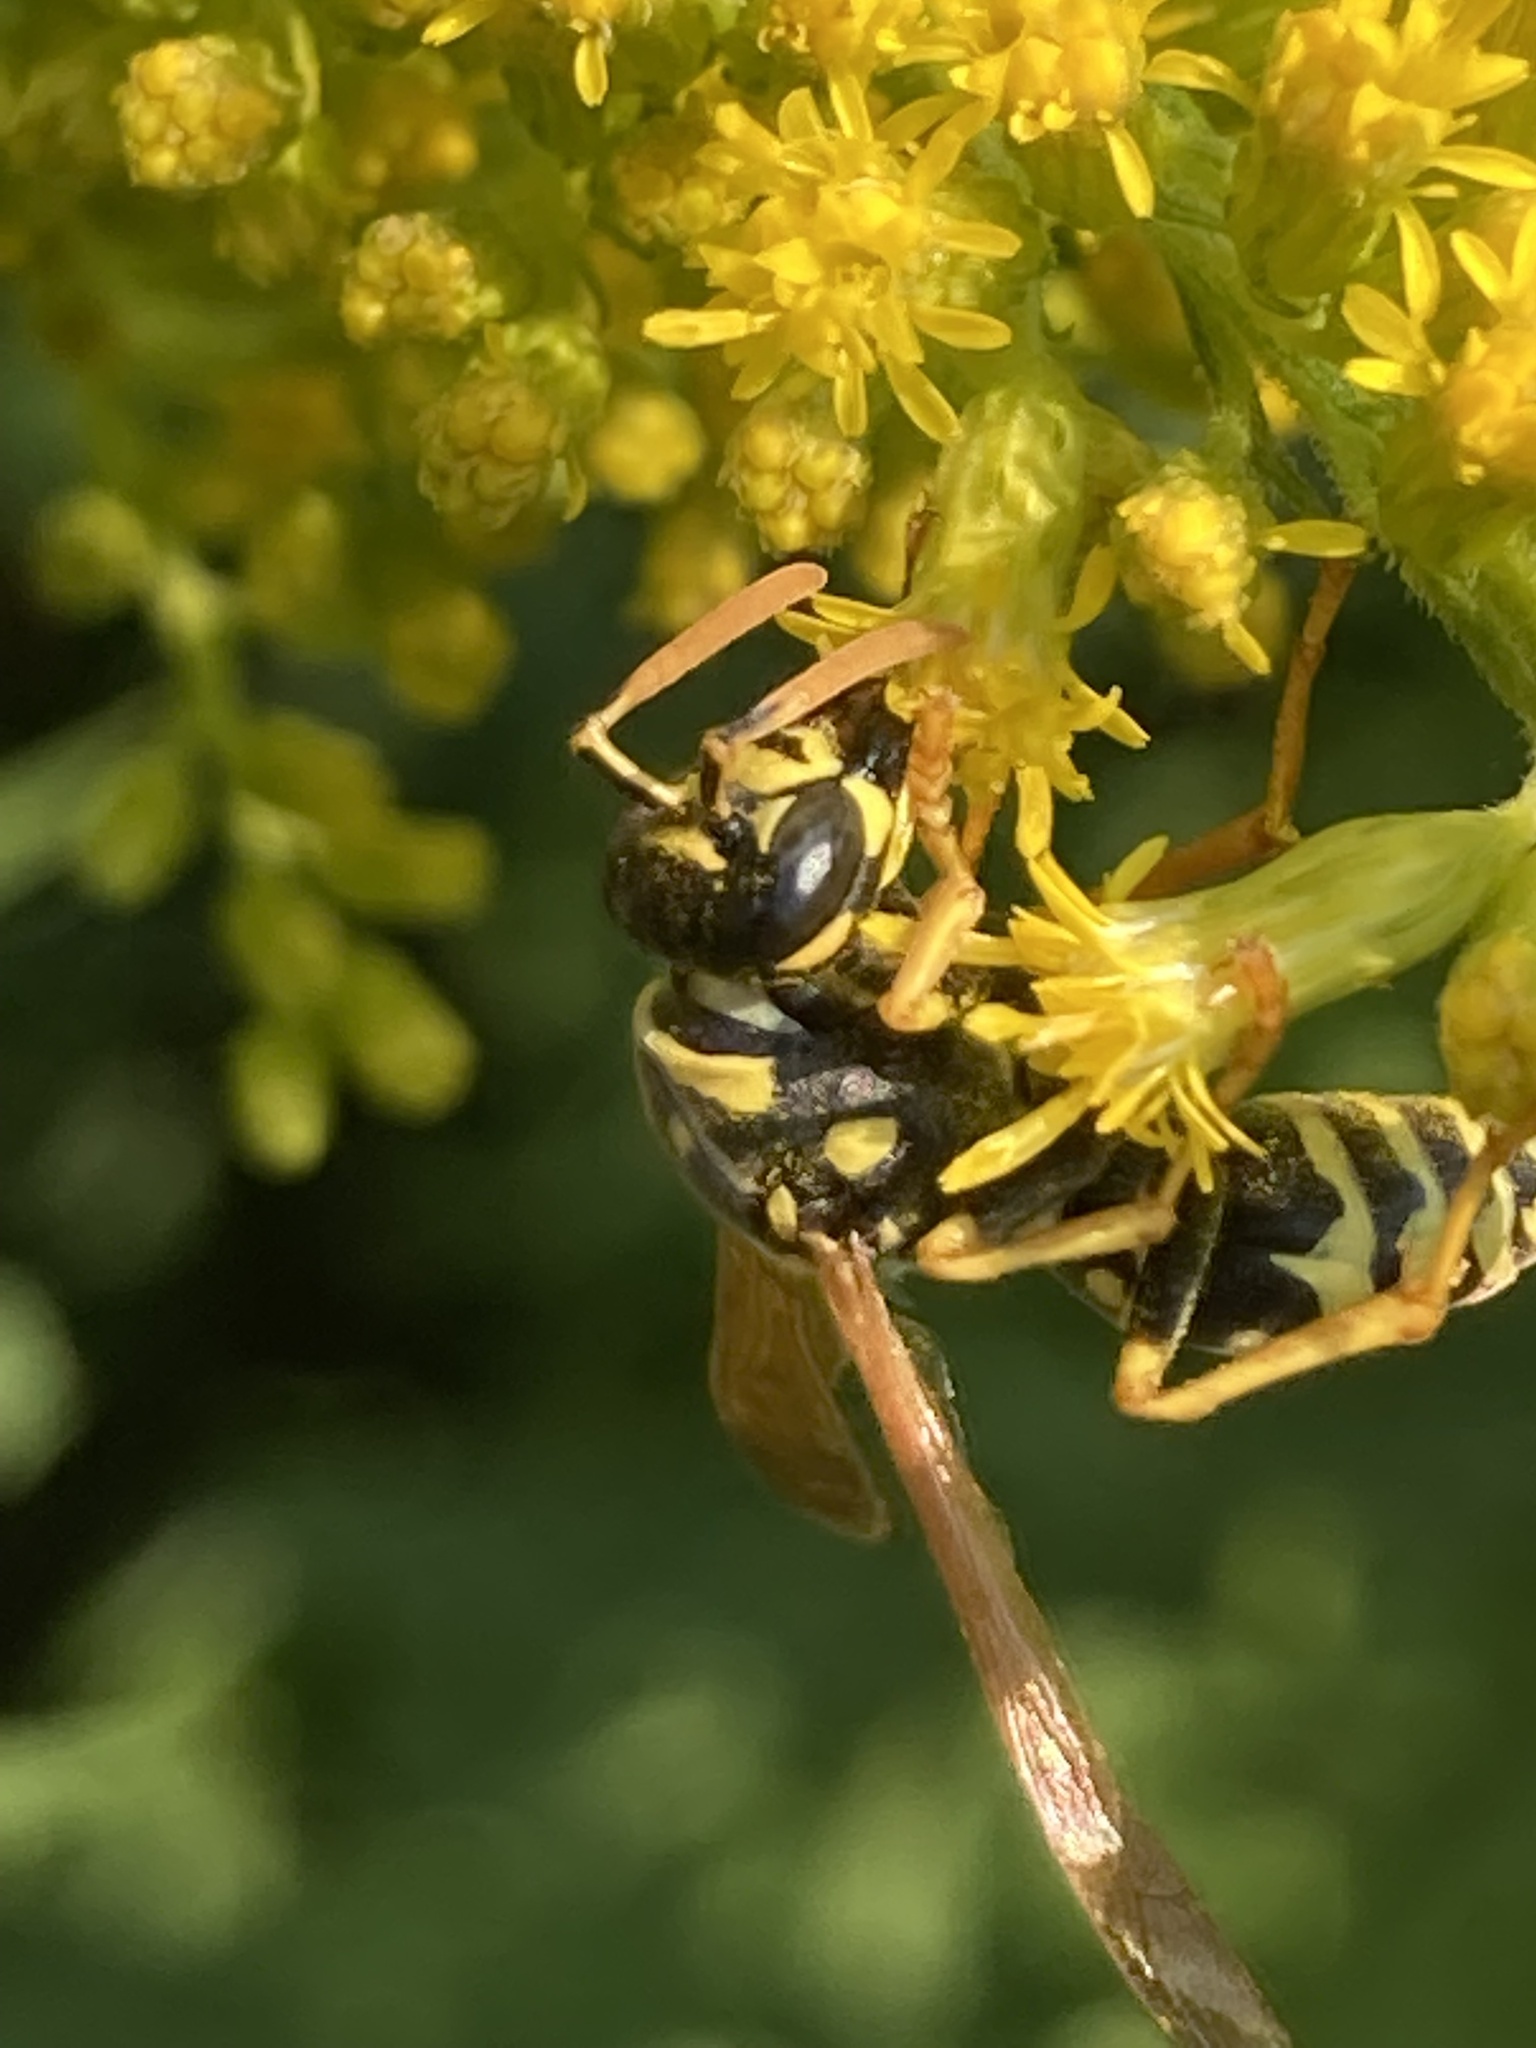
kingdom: Animalia
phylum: Arthropoda
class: Insecta
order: Hymenoptera
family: Eumenidae
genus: Polistes
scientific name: Polistes dominula
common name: Paper wasp
